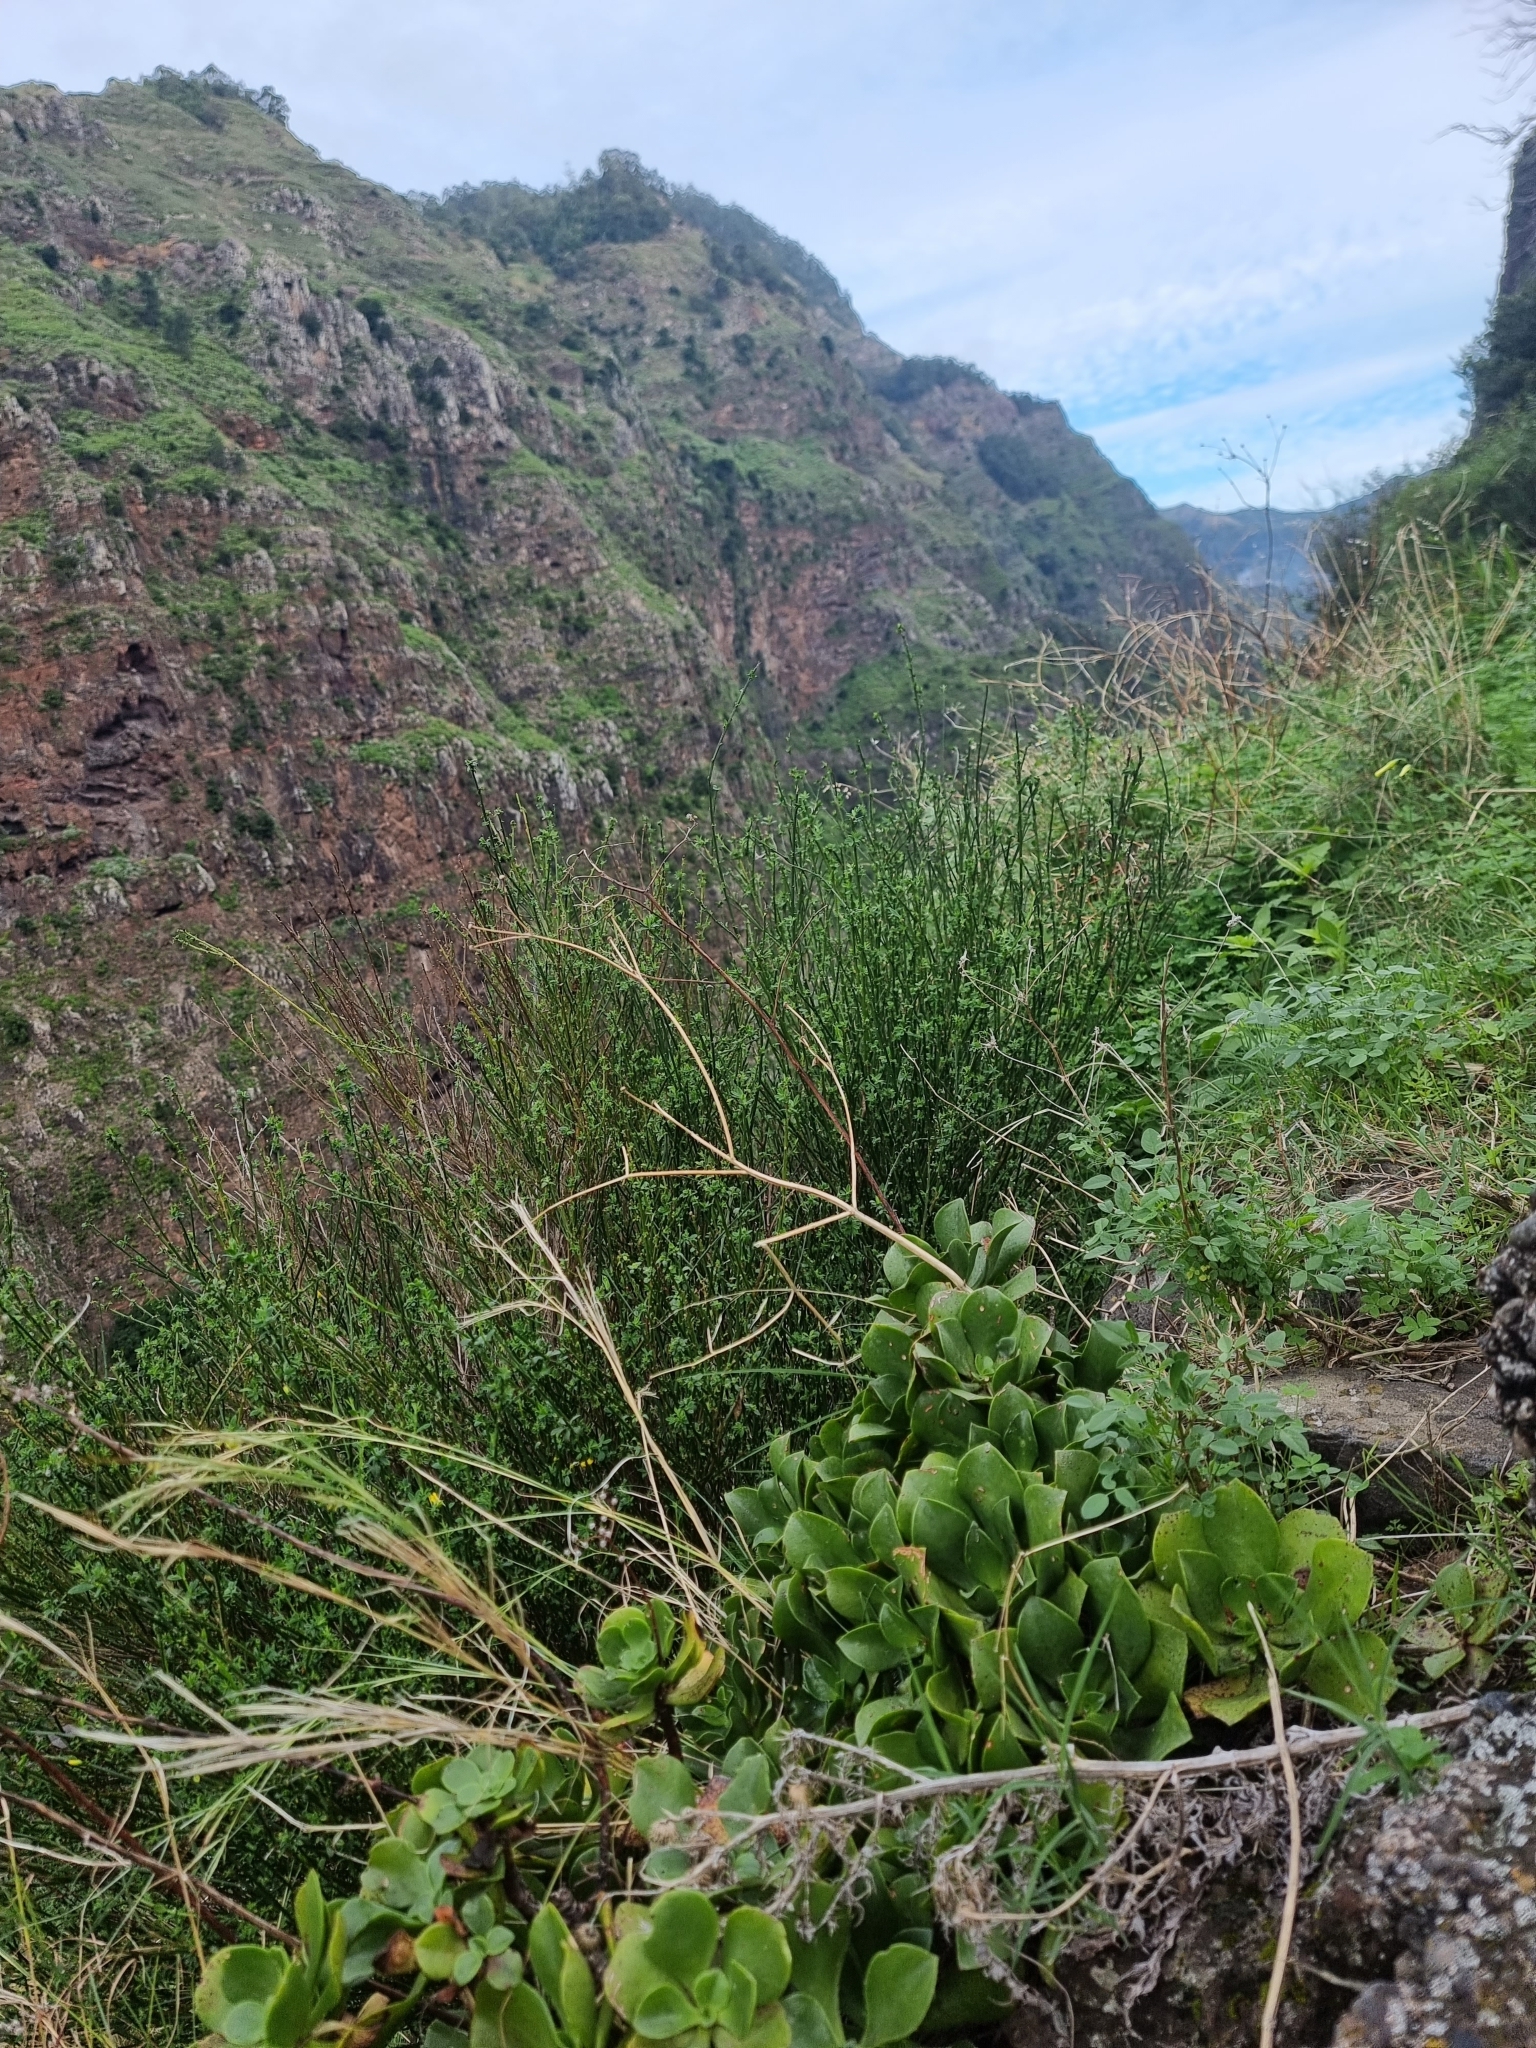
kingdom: Plantae
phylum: Tracheophyta
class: Magnoliopsida
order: Fabales
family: Fabaceae
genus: Cytisus
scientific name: Cytisus scoparius
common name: Scotch broom
